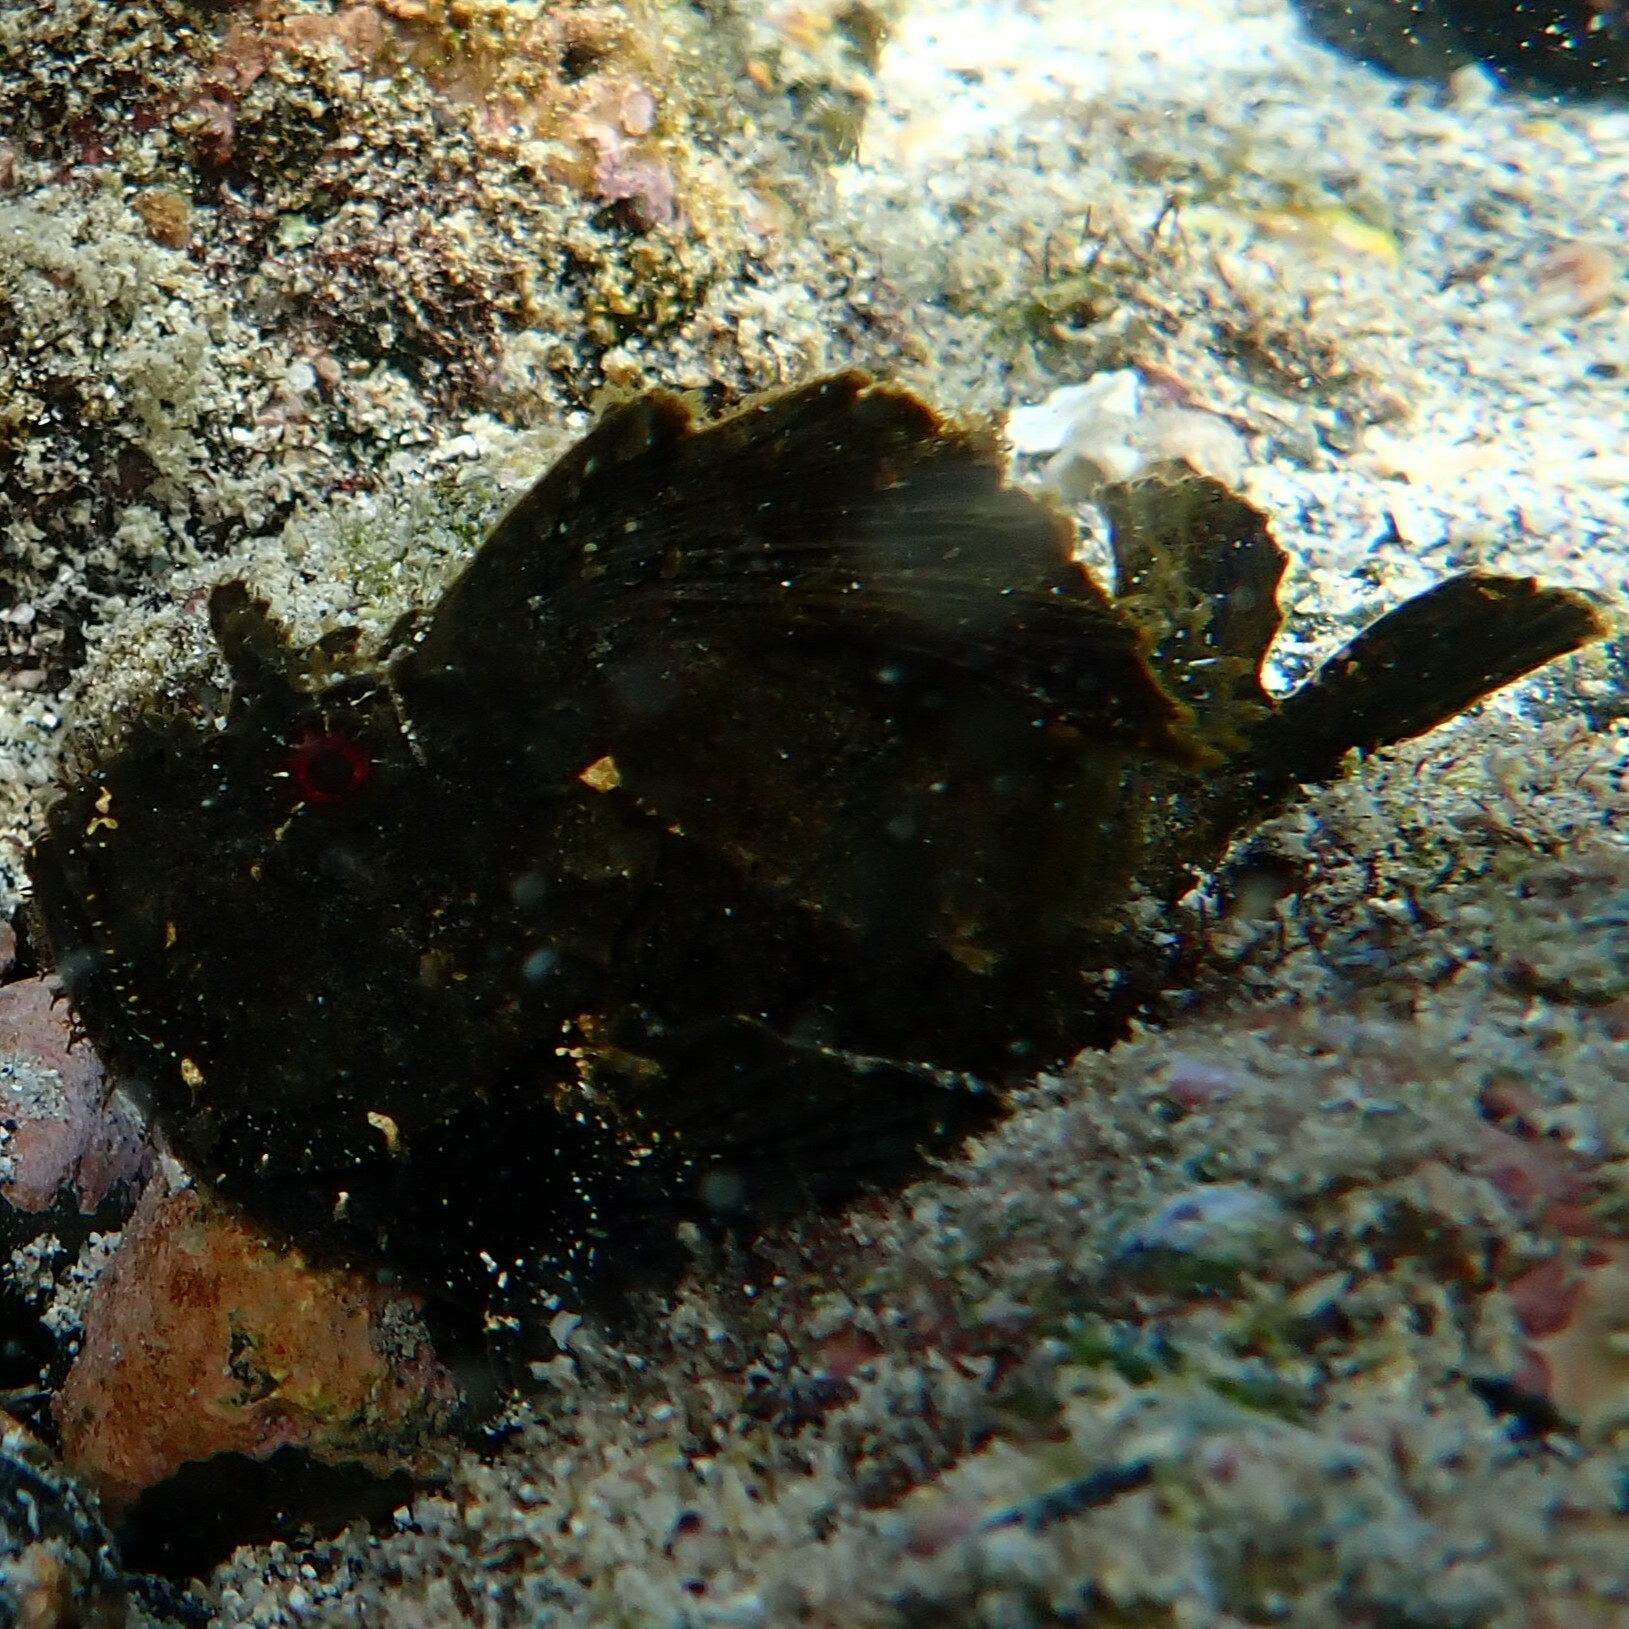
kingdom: Animalia
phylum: Chordata
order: Scorpaeniformes
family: Scorpaenidae
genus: Taenianotus
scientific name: Taenianotus triacanthus
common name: Leaf scorpionfish
